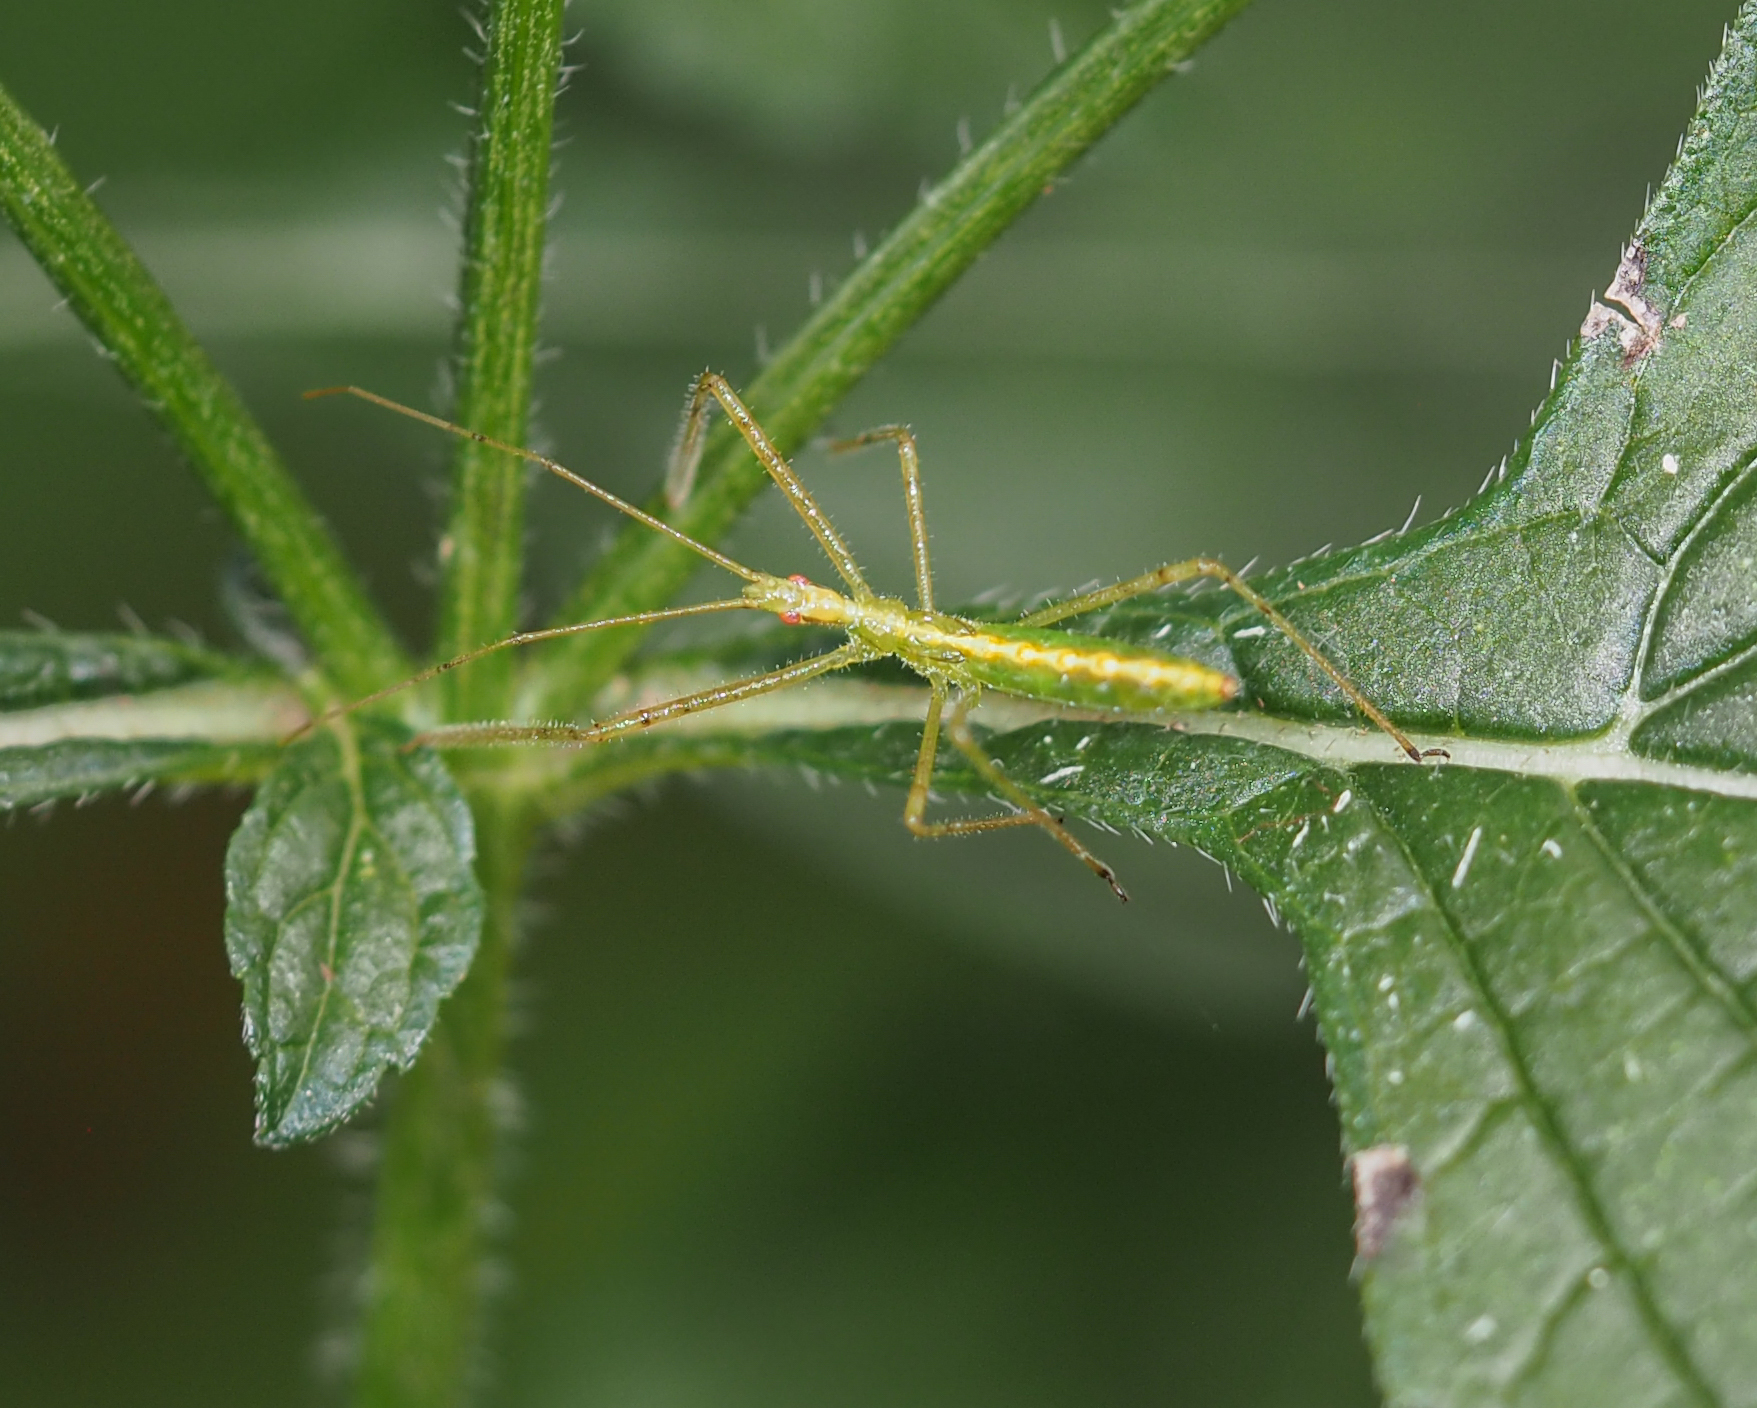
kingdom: Animalia
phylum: Arthropoda
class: Insecta
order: Hemiptera
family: Reduviidae
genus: Zelus
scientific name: Zelus luridus
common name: Pale green assassin bug
